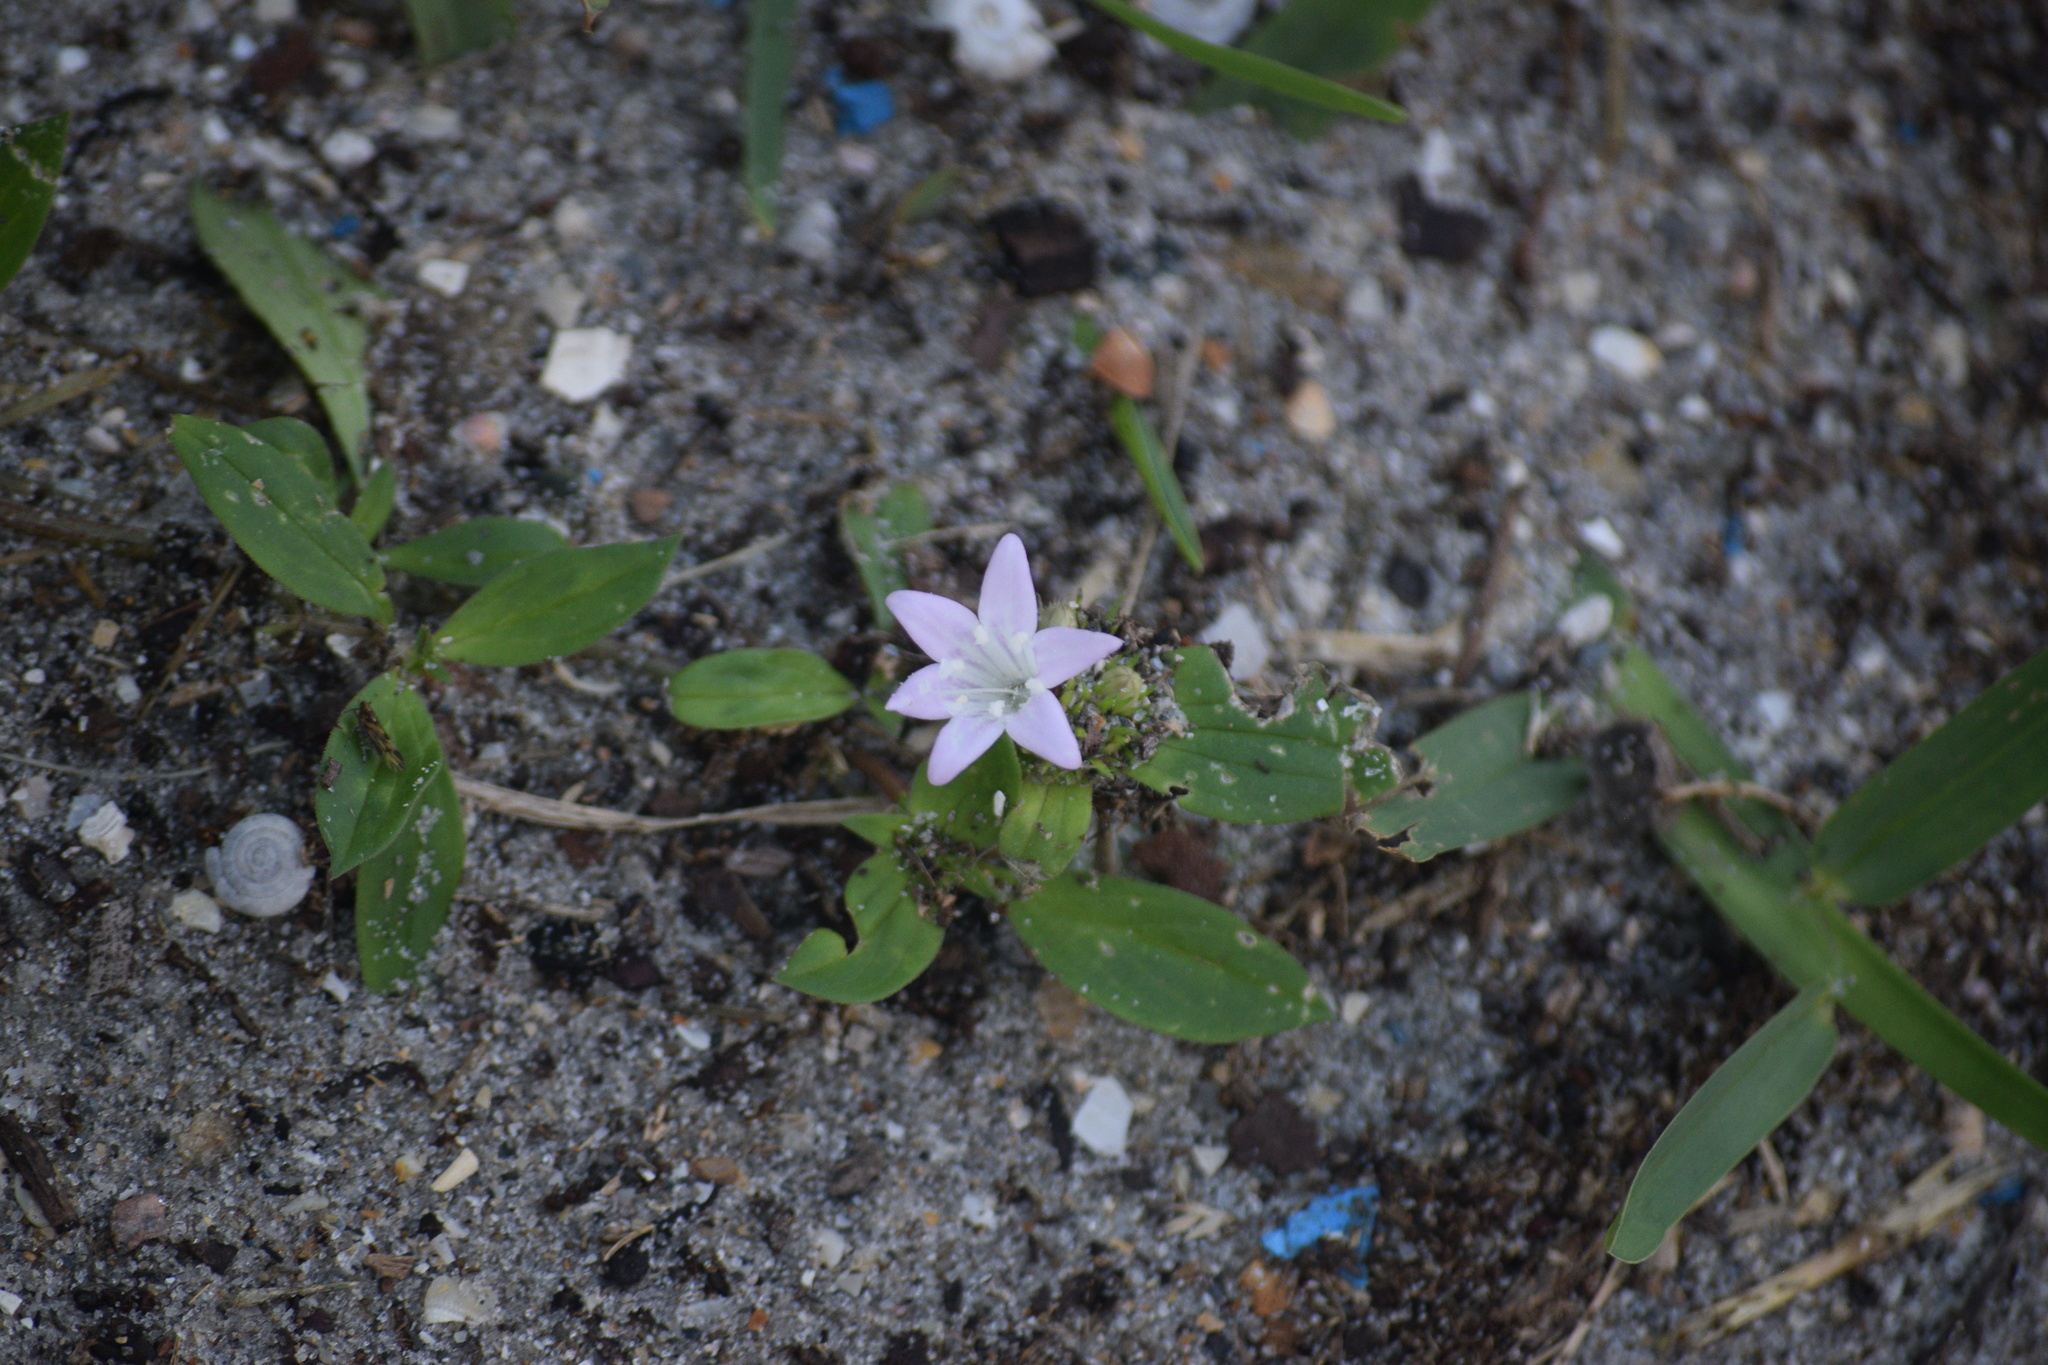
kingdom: Plantae
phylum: Tracheophyta
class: Magnoliopsida
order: Gentianales
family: Rubiaceae
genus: Richardia
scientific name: Richardia grandiflora
